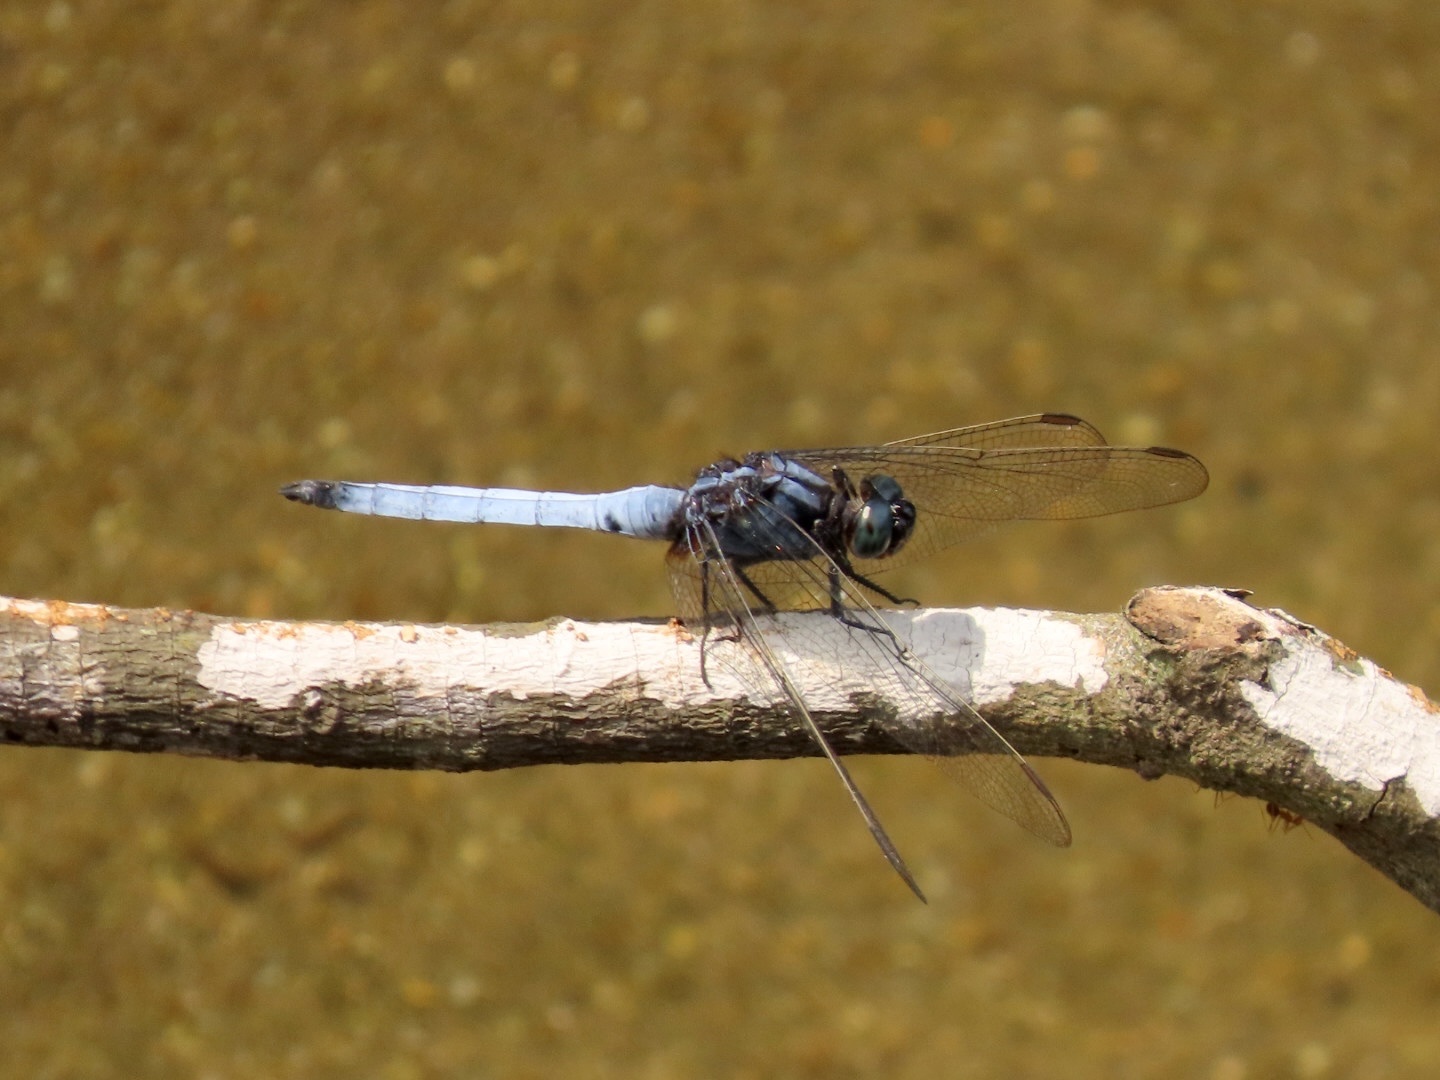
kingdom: Animalia
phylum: Arthropoda
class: Insecta
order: Odonata
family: Libellulidae
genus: Orthetrum
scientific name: Orthetrum glaucum
